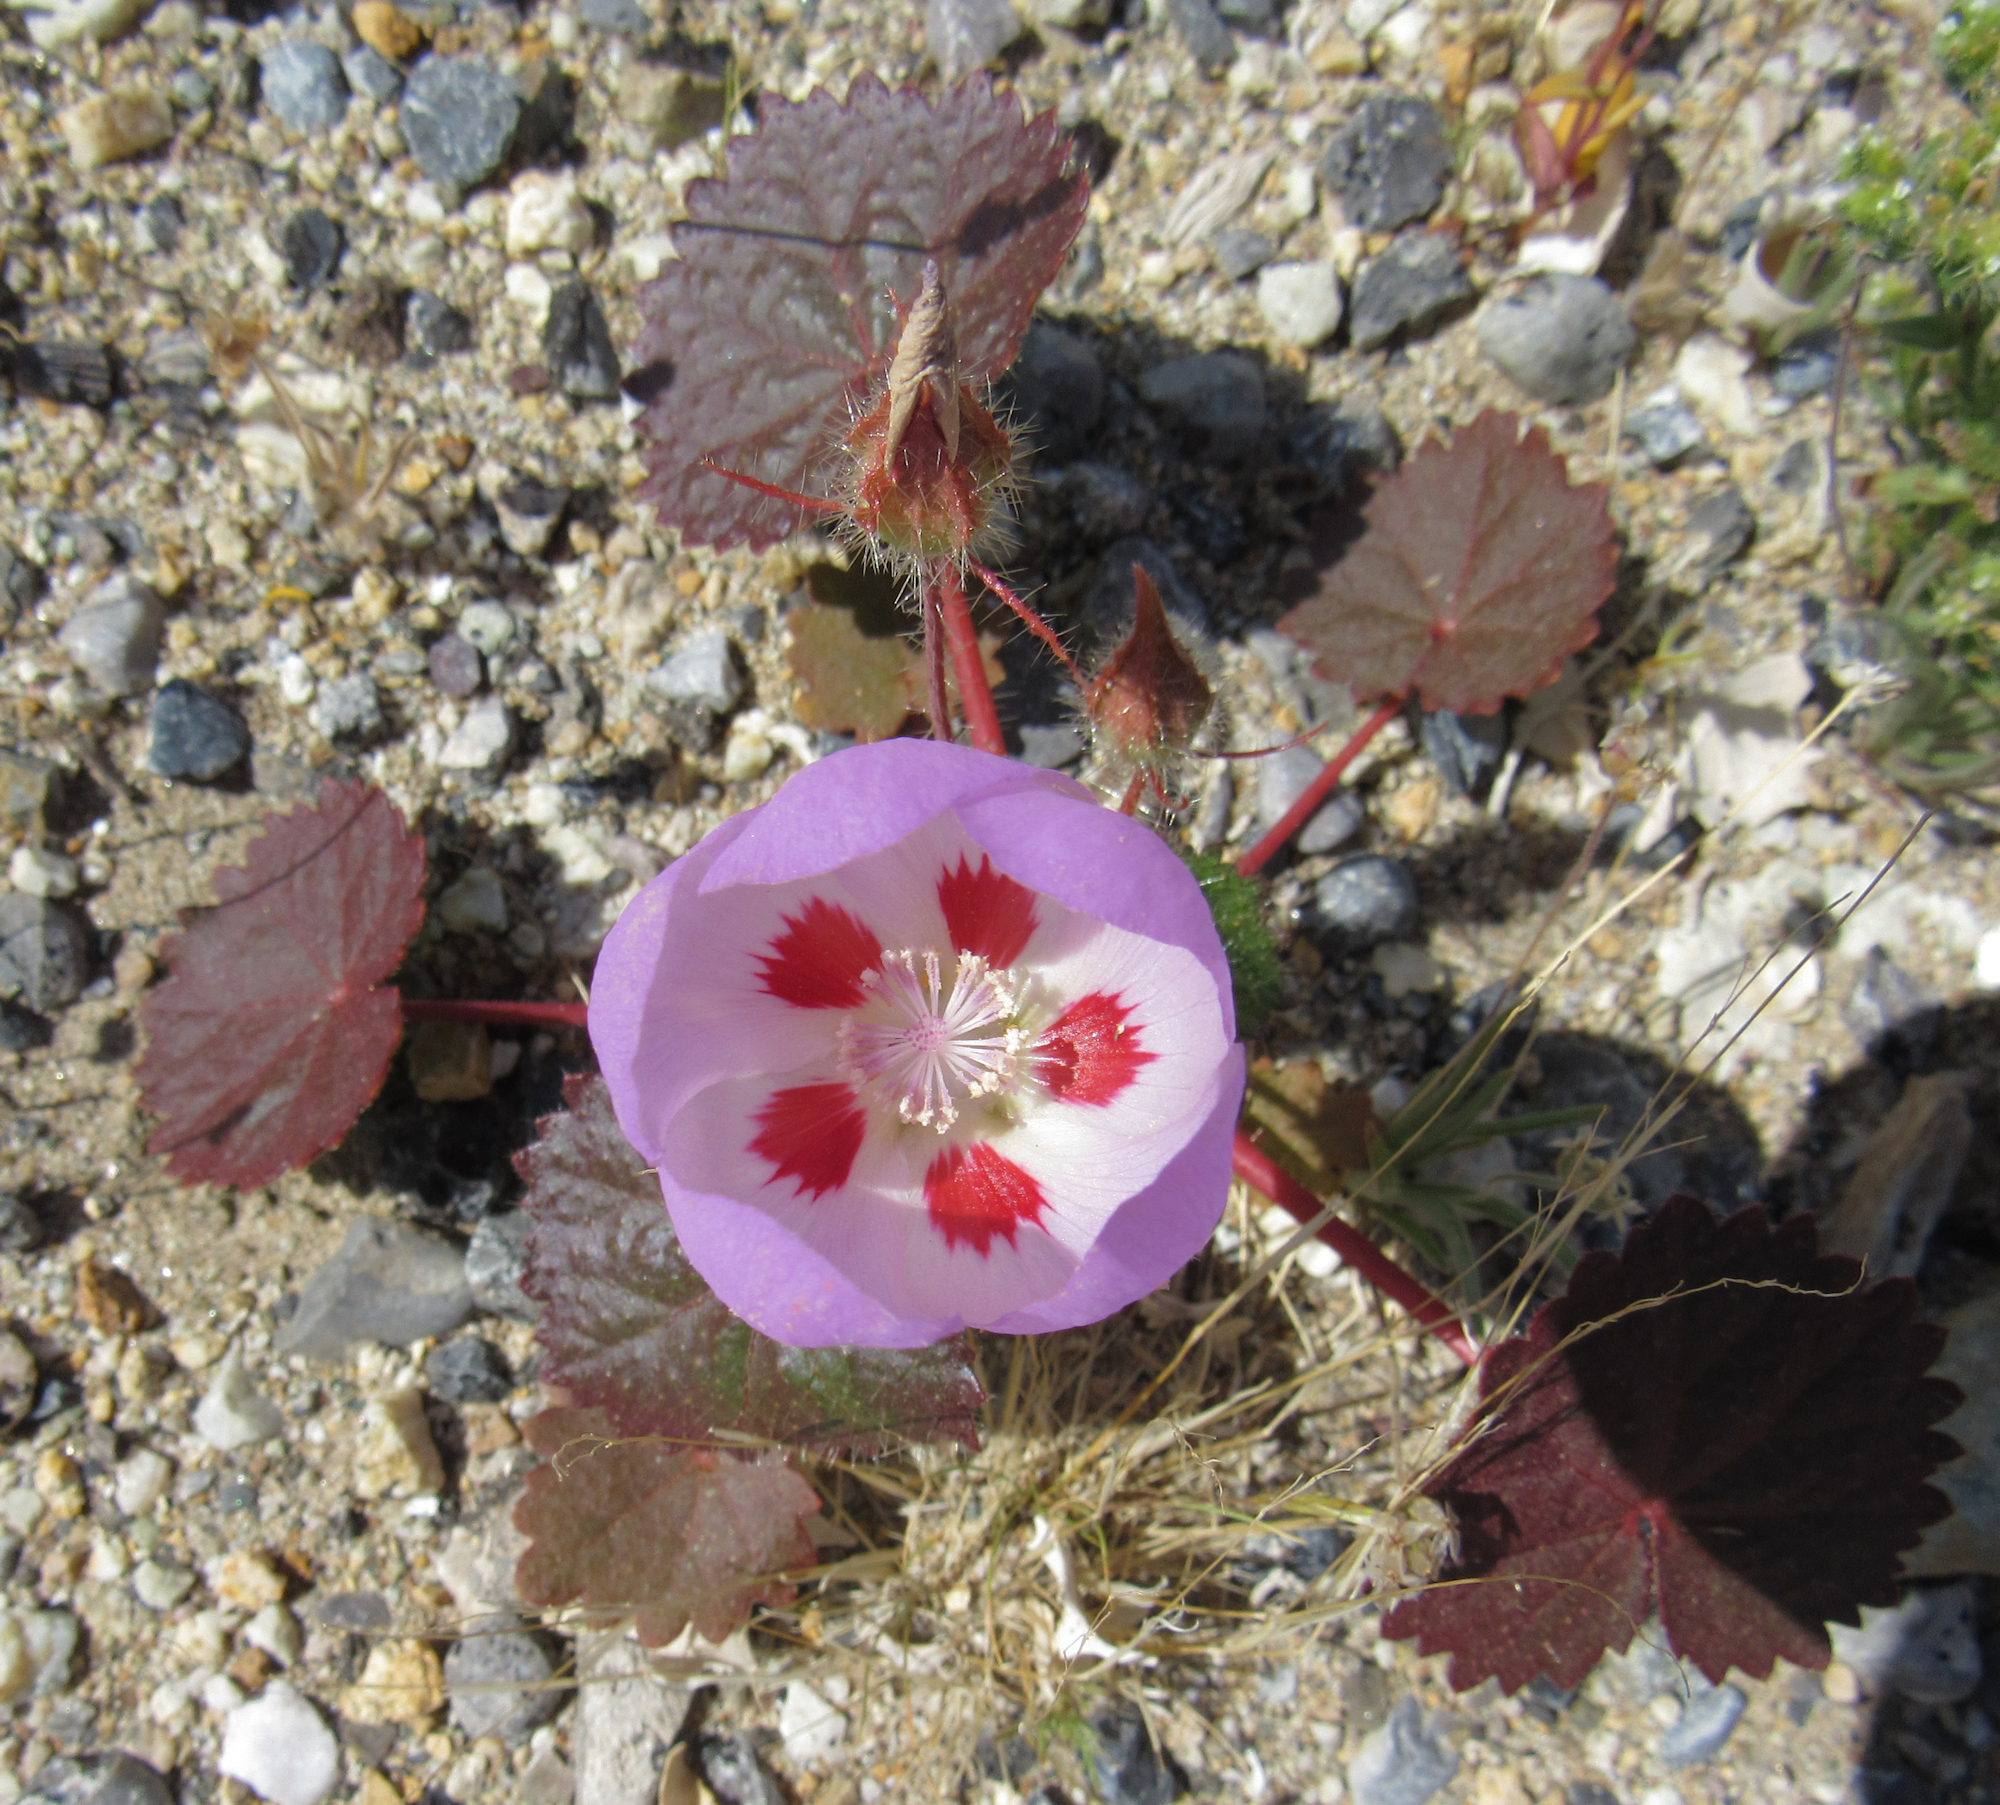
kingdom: Plantae
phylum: Tracheophyta
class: Magnoliopsida
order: Malvales
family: Malvaceae
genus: Eremalche
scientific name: Eremalche rotundifolia
